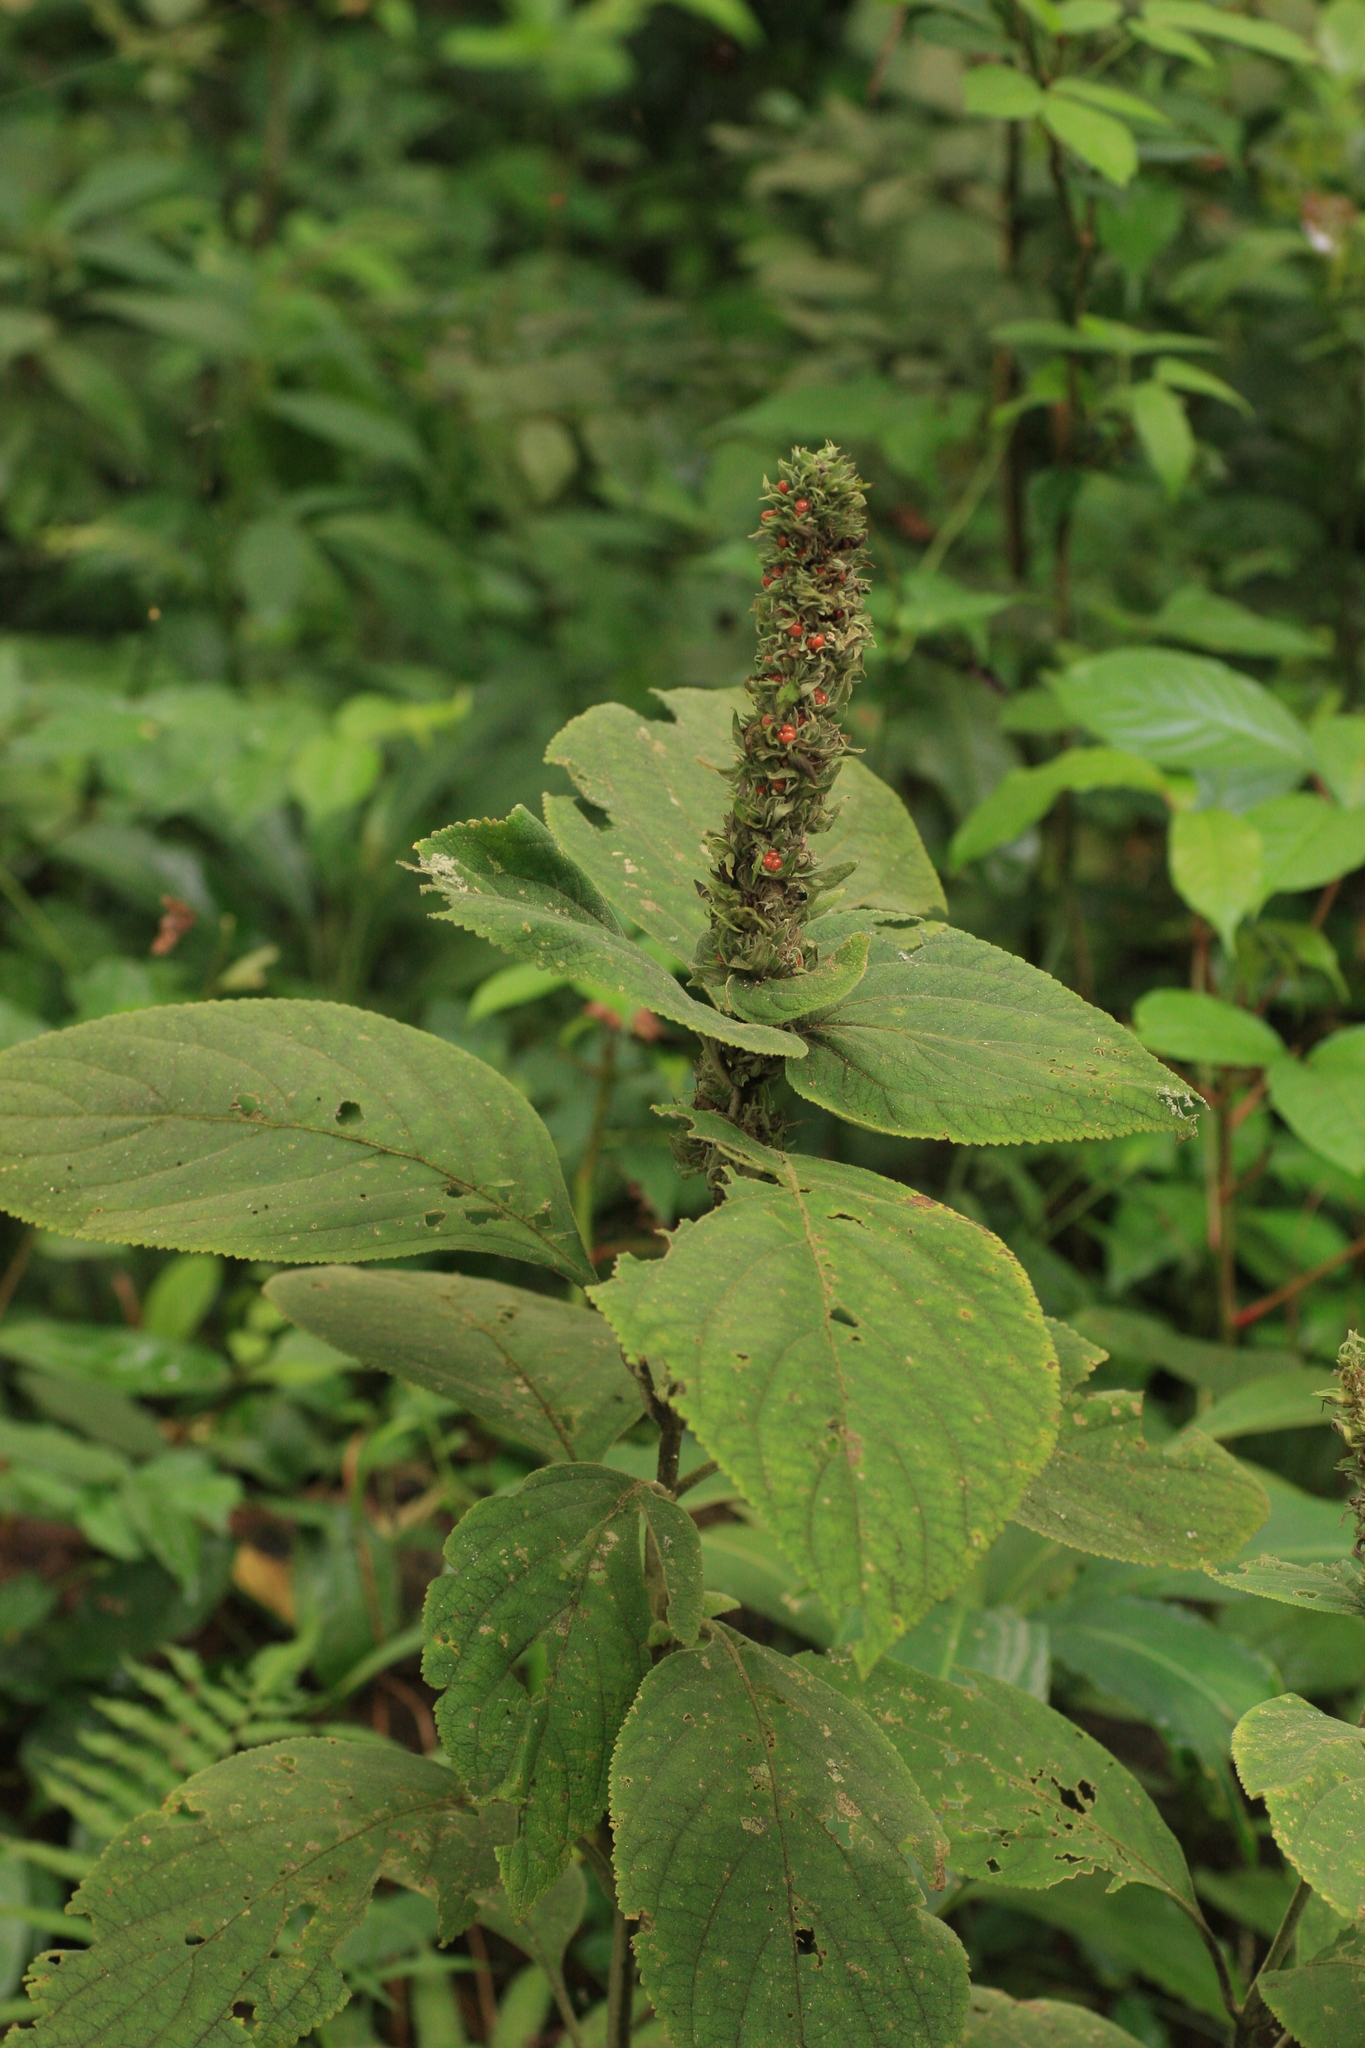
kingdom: Plantae
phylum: Tracheophyta
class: Magnoliopsida
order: Lamiales
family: Lamiaceae
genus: Gomphostemma
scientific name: Gomphostemma heyneanum
